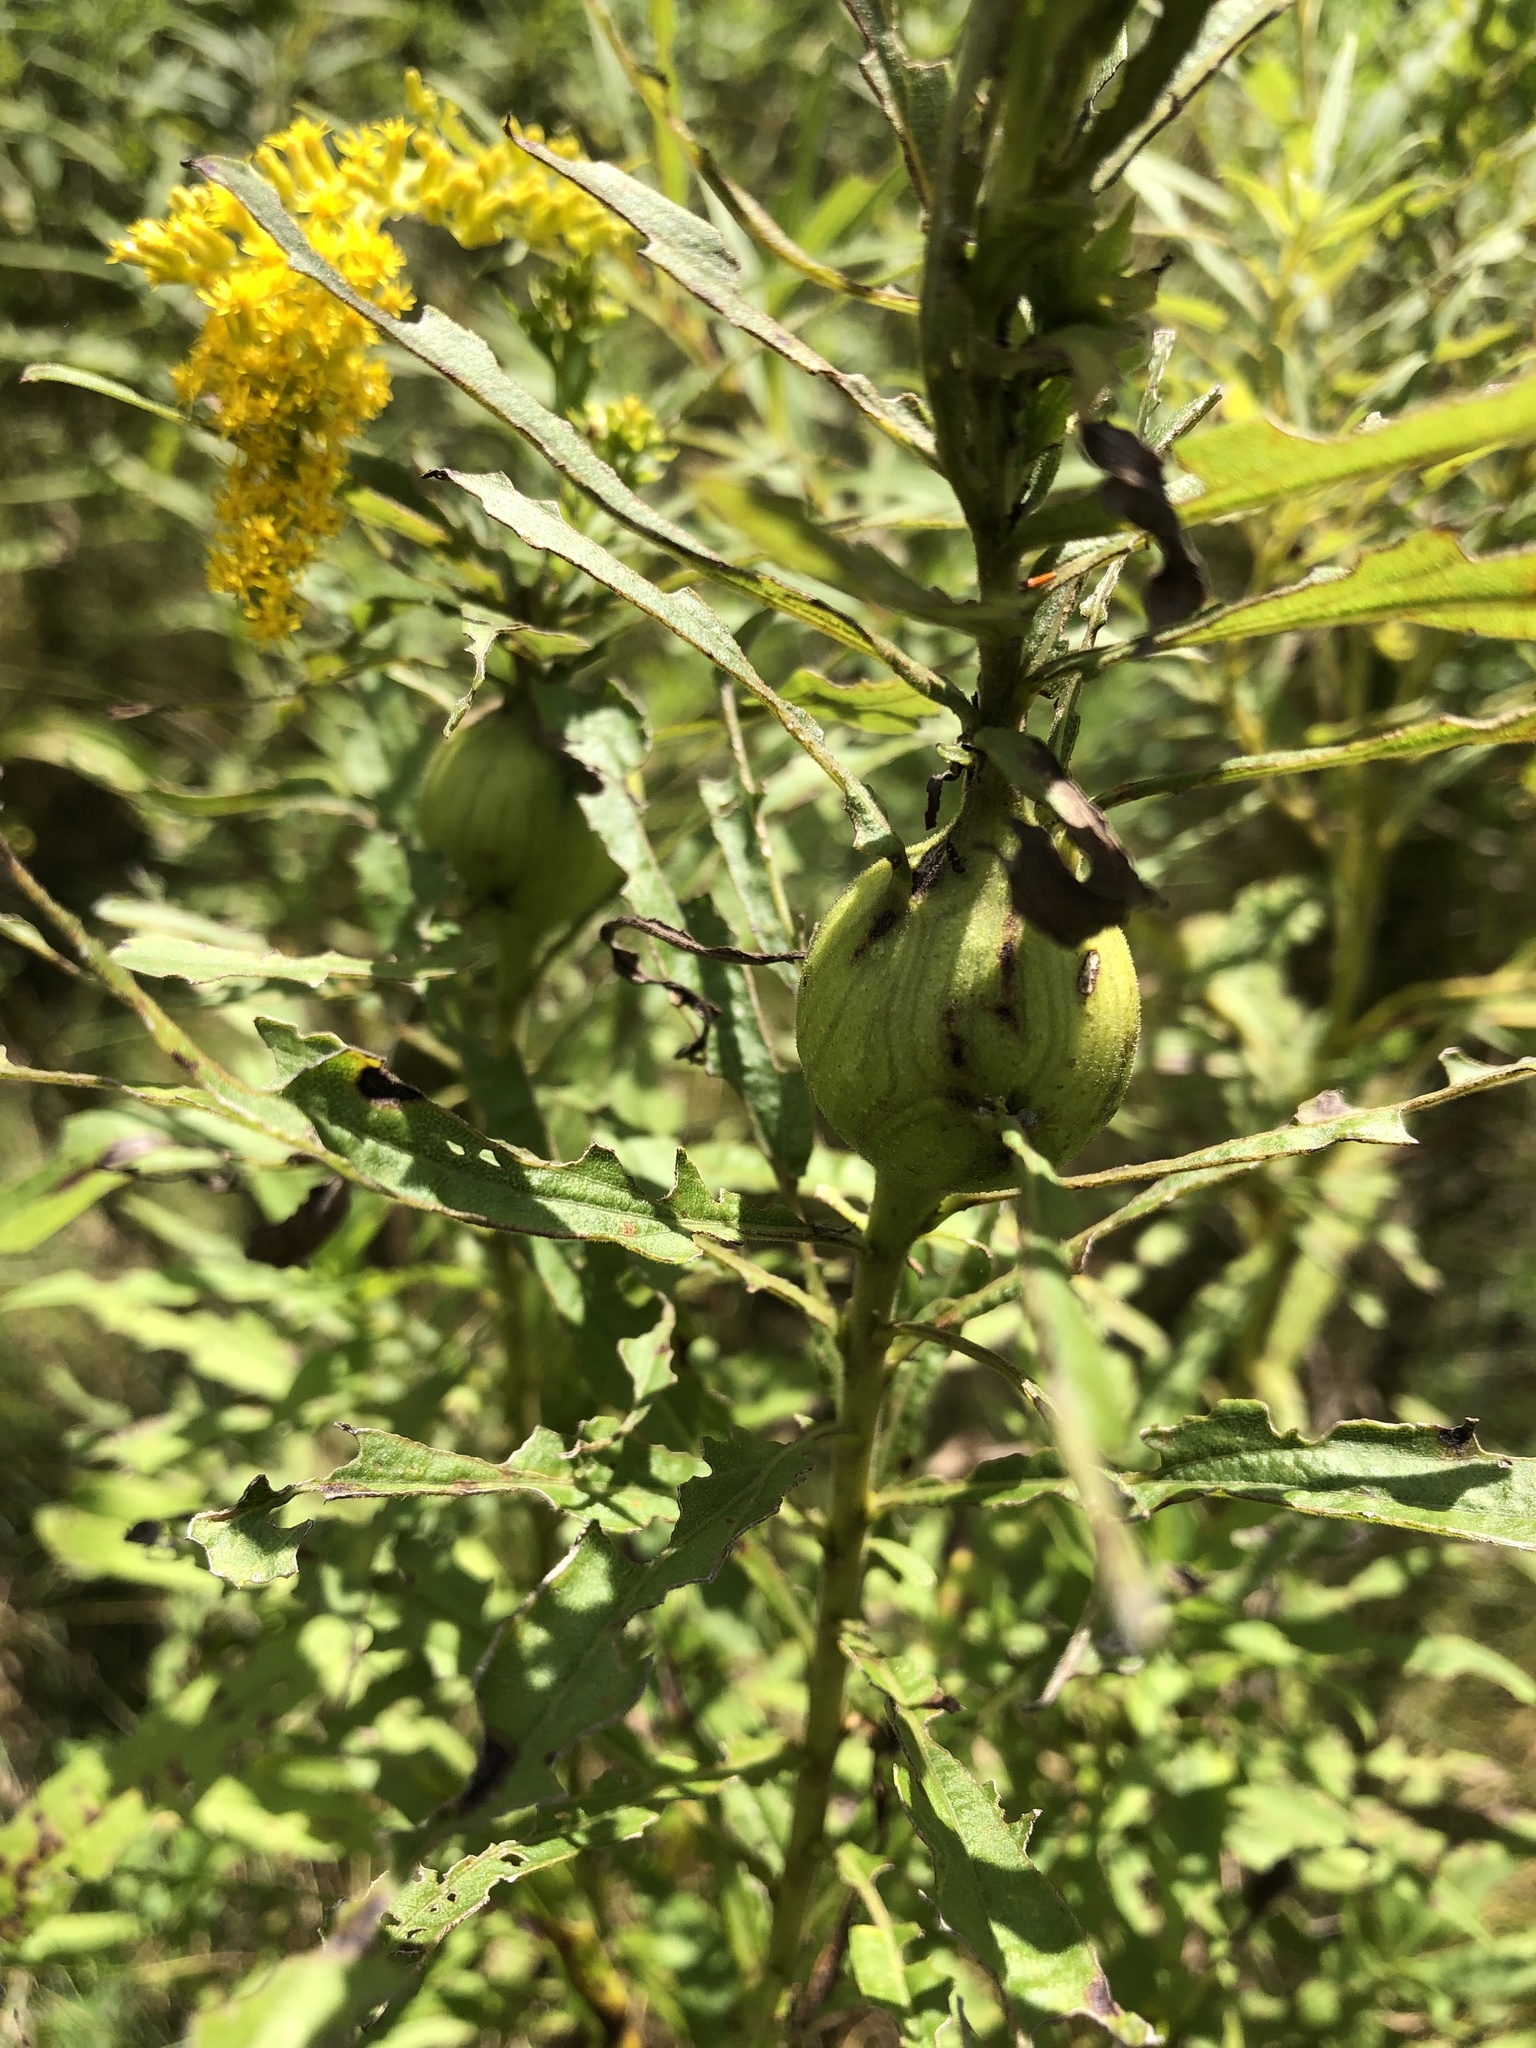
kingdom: Animalia
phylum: Arthropoda
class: Insecta
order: Diptera
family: Tephritidae
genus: Eurosta
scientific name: Eurosta solidaginis
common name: Goldenrod gall fly
